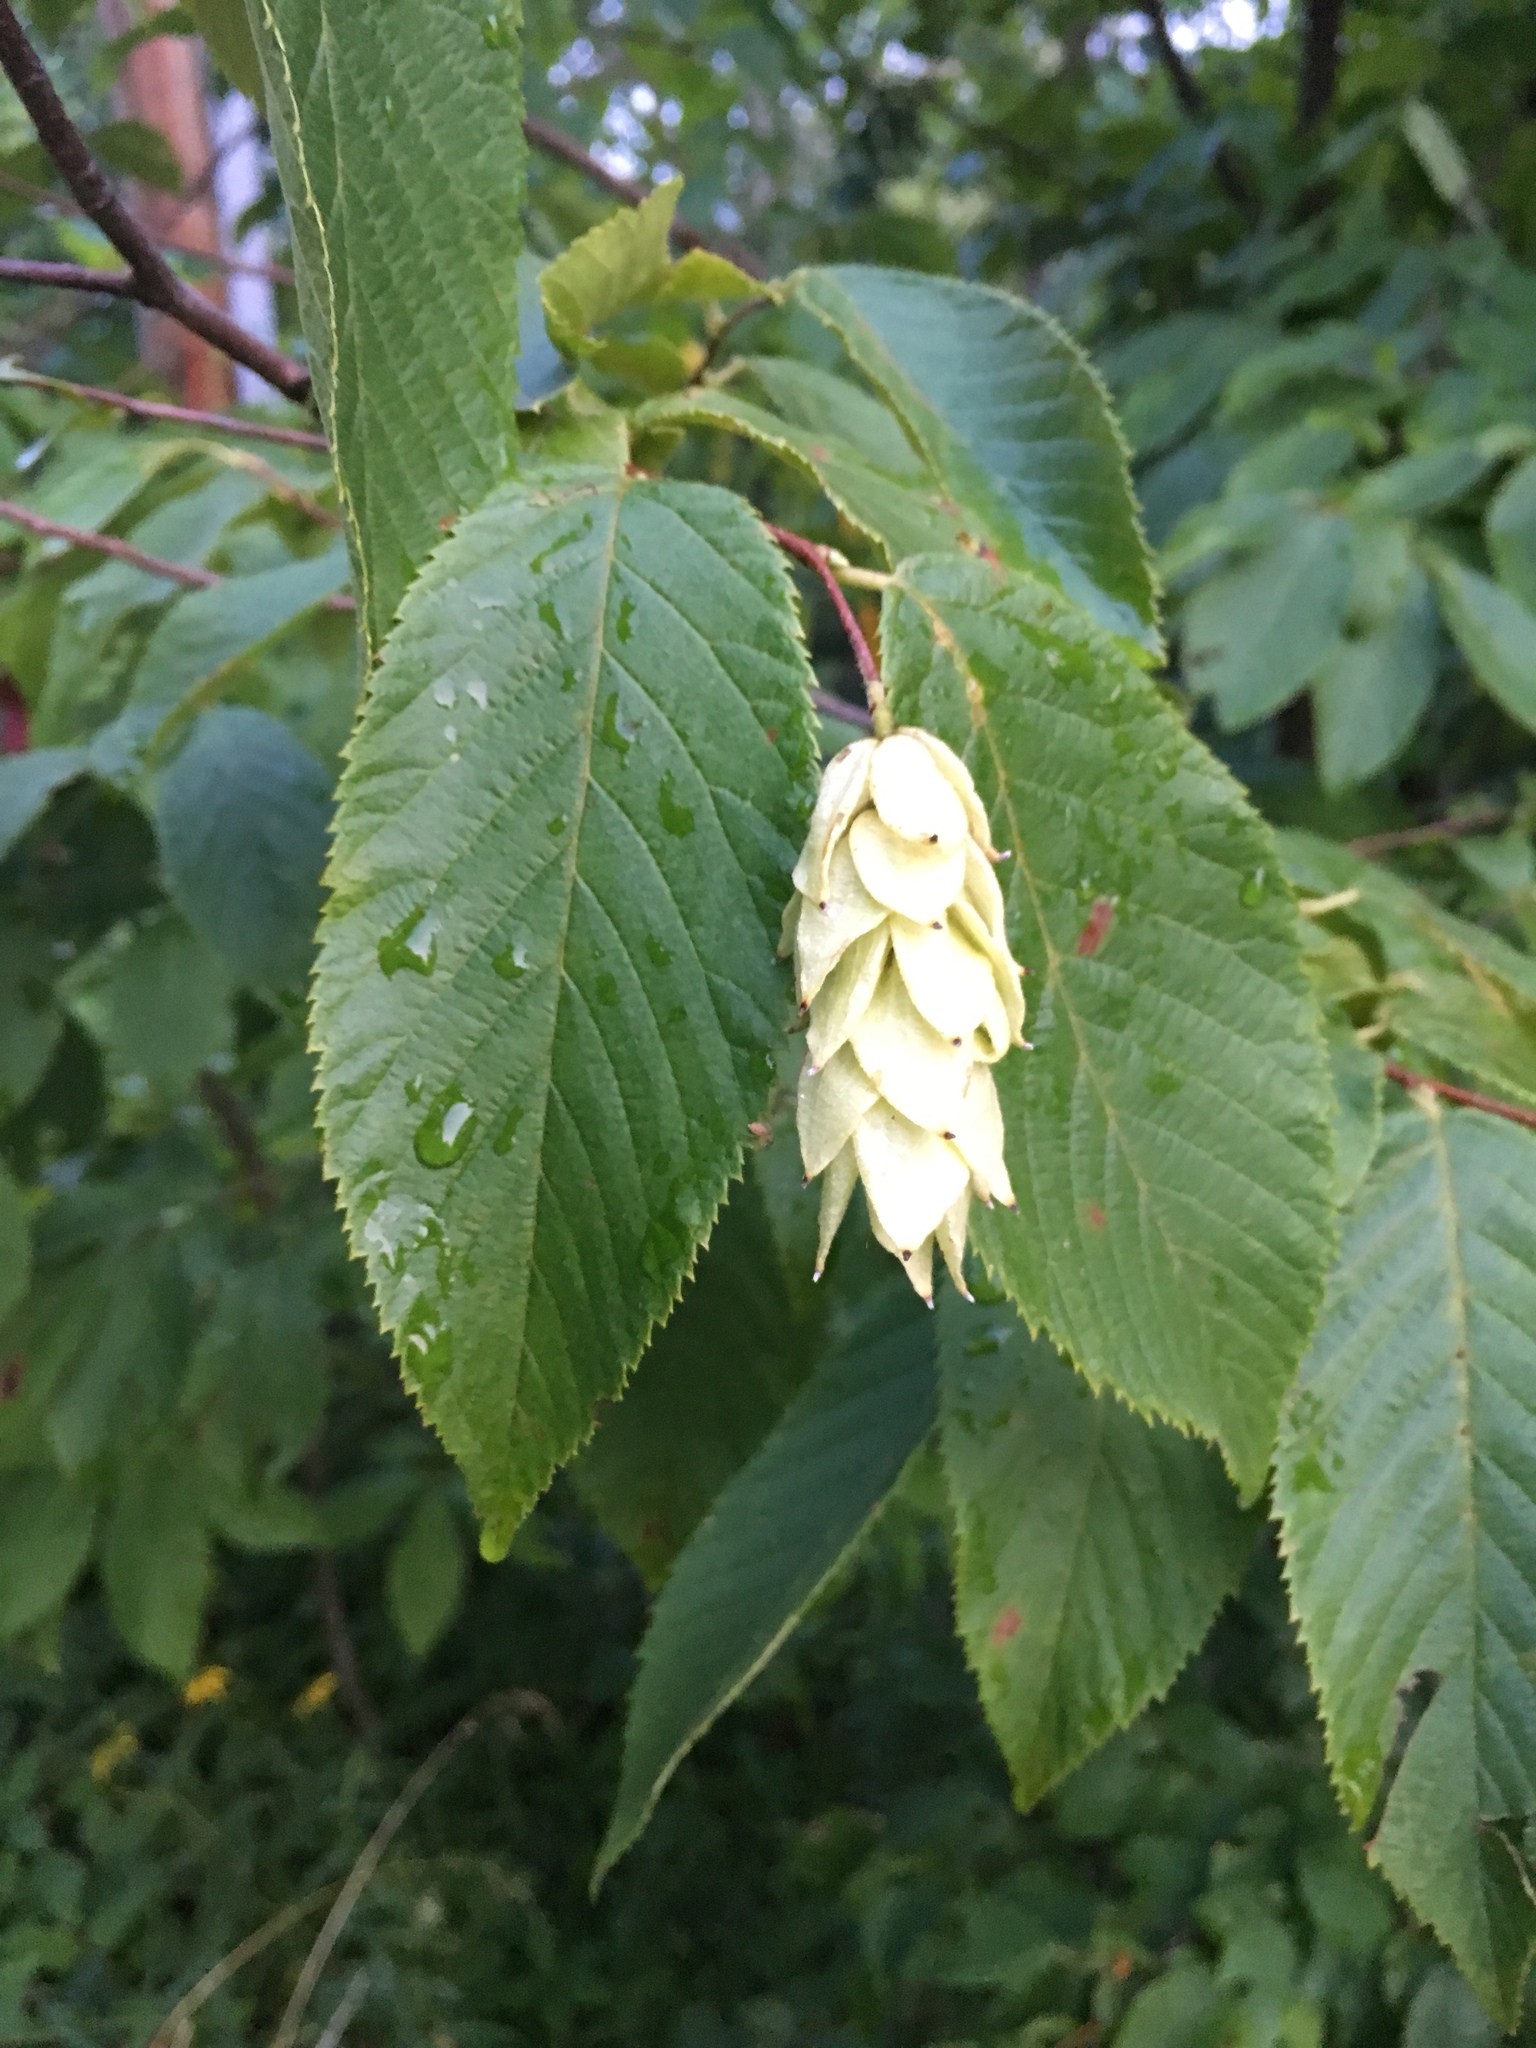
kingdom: Plantae
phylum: Tracheophyta
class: Magnoliopsida
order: Fagales
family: Betulaceae
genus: Ostrya
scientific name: Ostrya virginiana
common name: Ironwood
